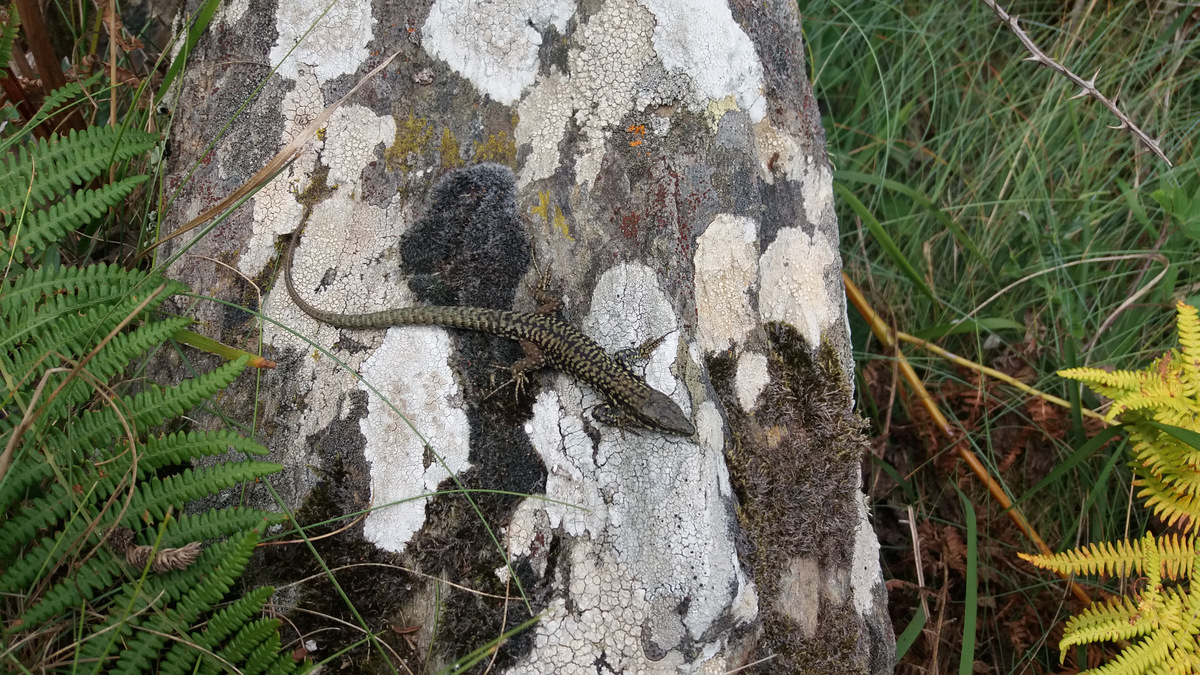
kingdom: Animalia
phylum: Chordata
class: Squamata
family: Lacertidae
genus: Podarcis
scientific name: Podarcis muralis
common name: Common wall lizard
